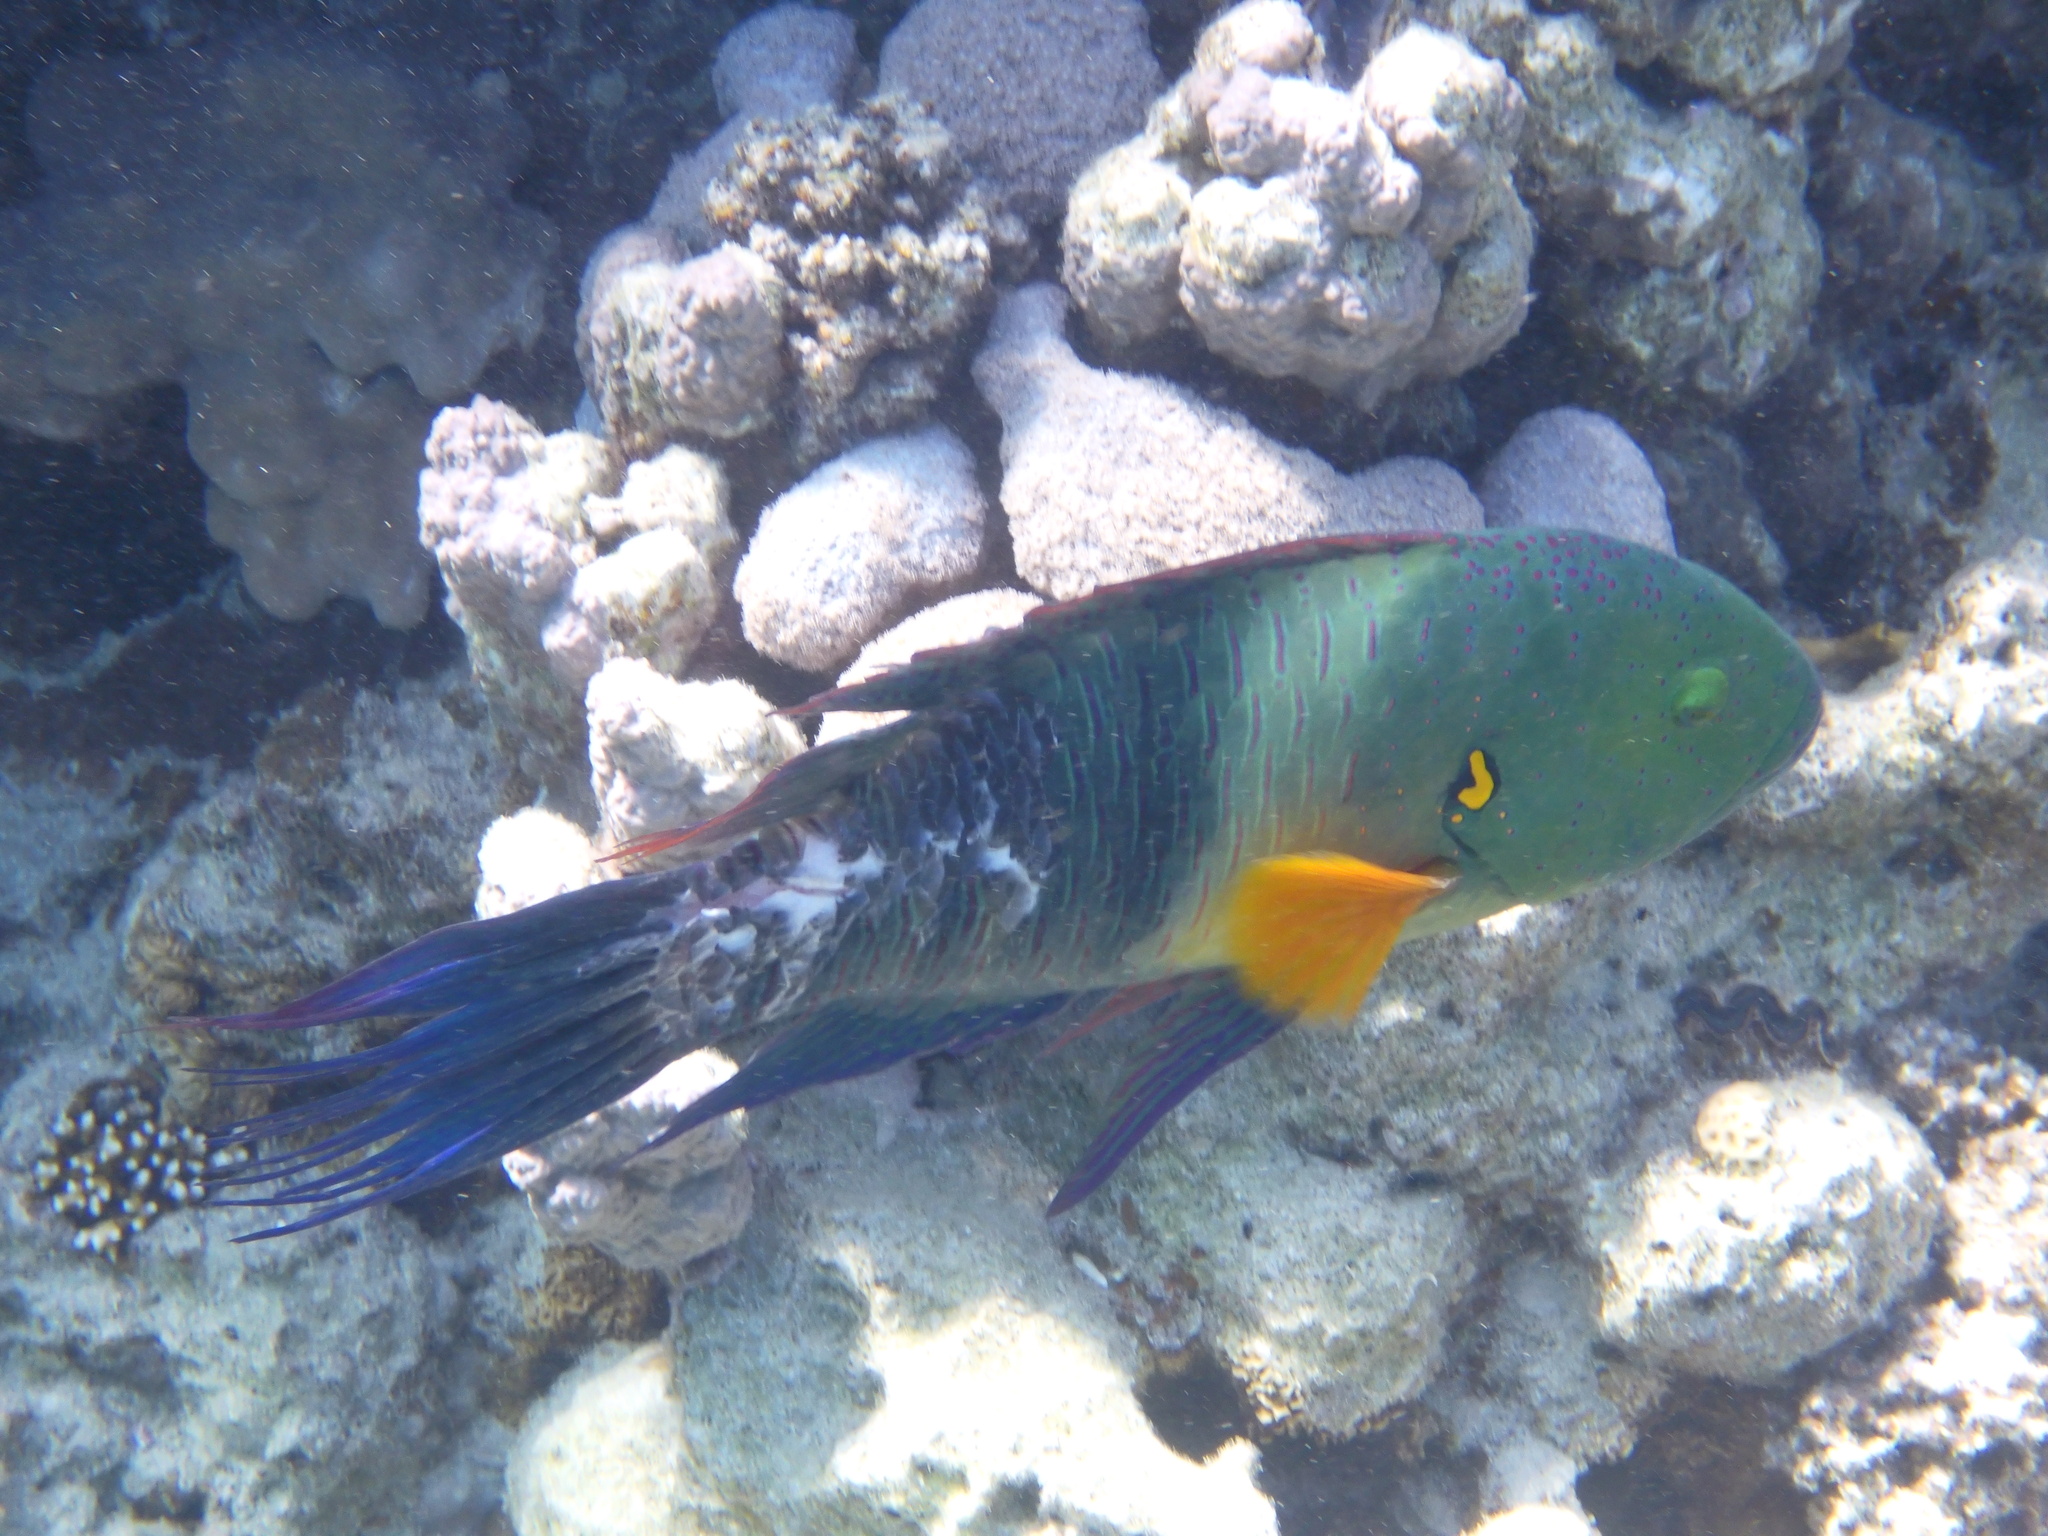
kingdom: Animalia
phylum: Chordata
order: Perciformes
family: Labridae
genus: Cheilinus
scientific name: Cheilinus lunulatus
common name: Broomtail wrasse
